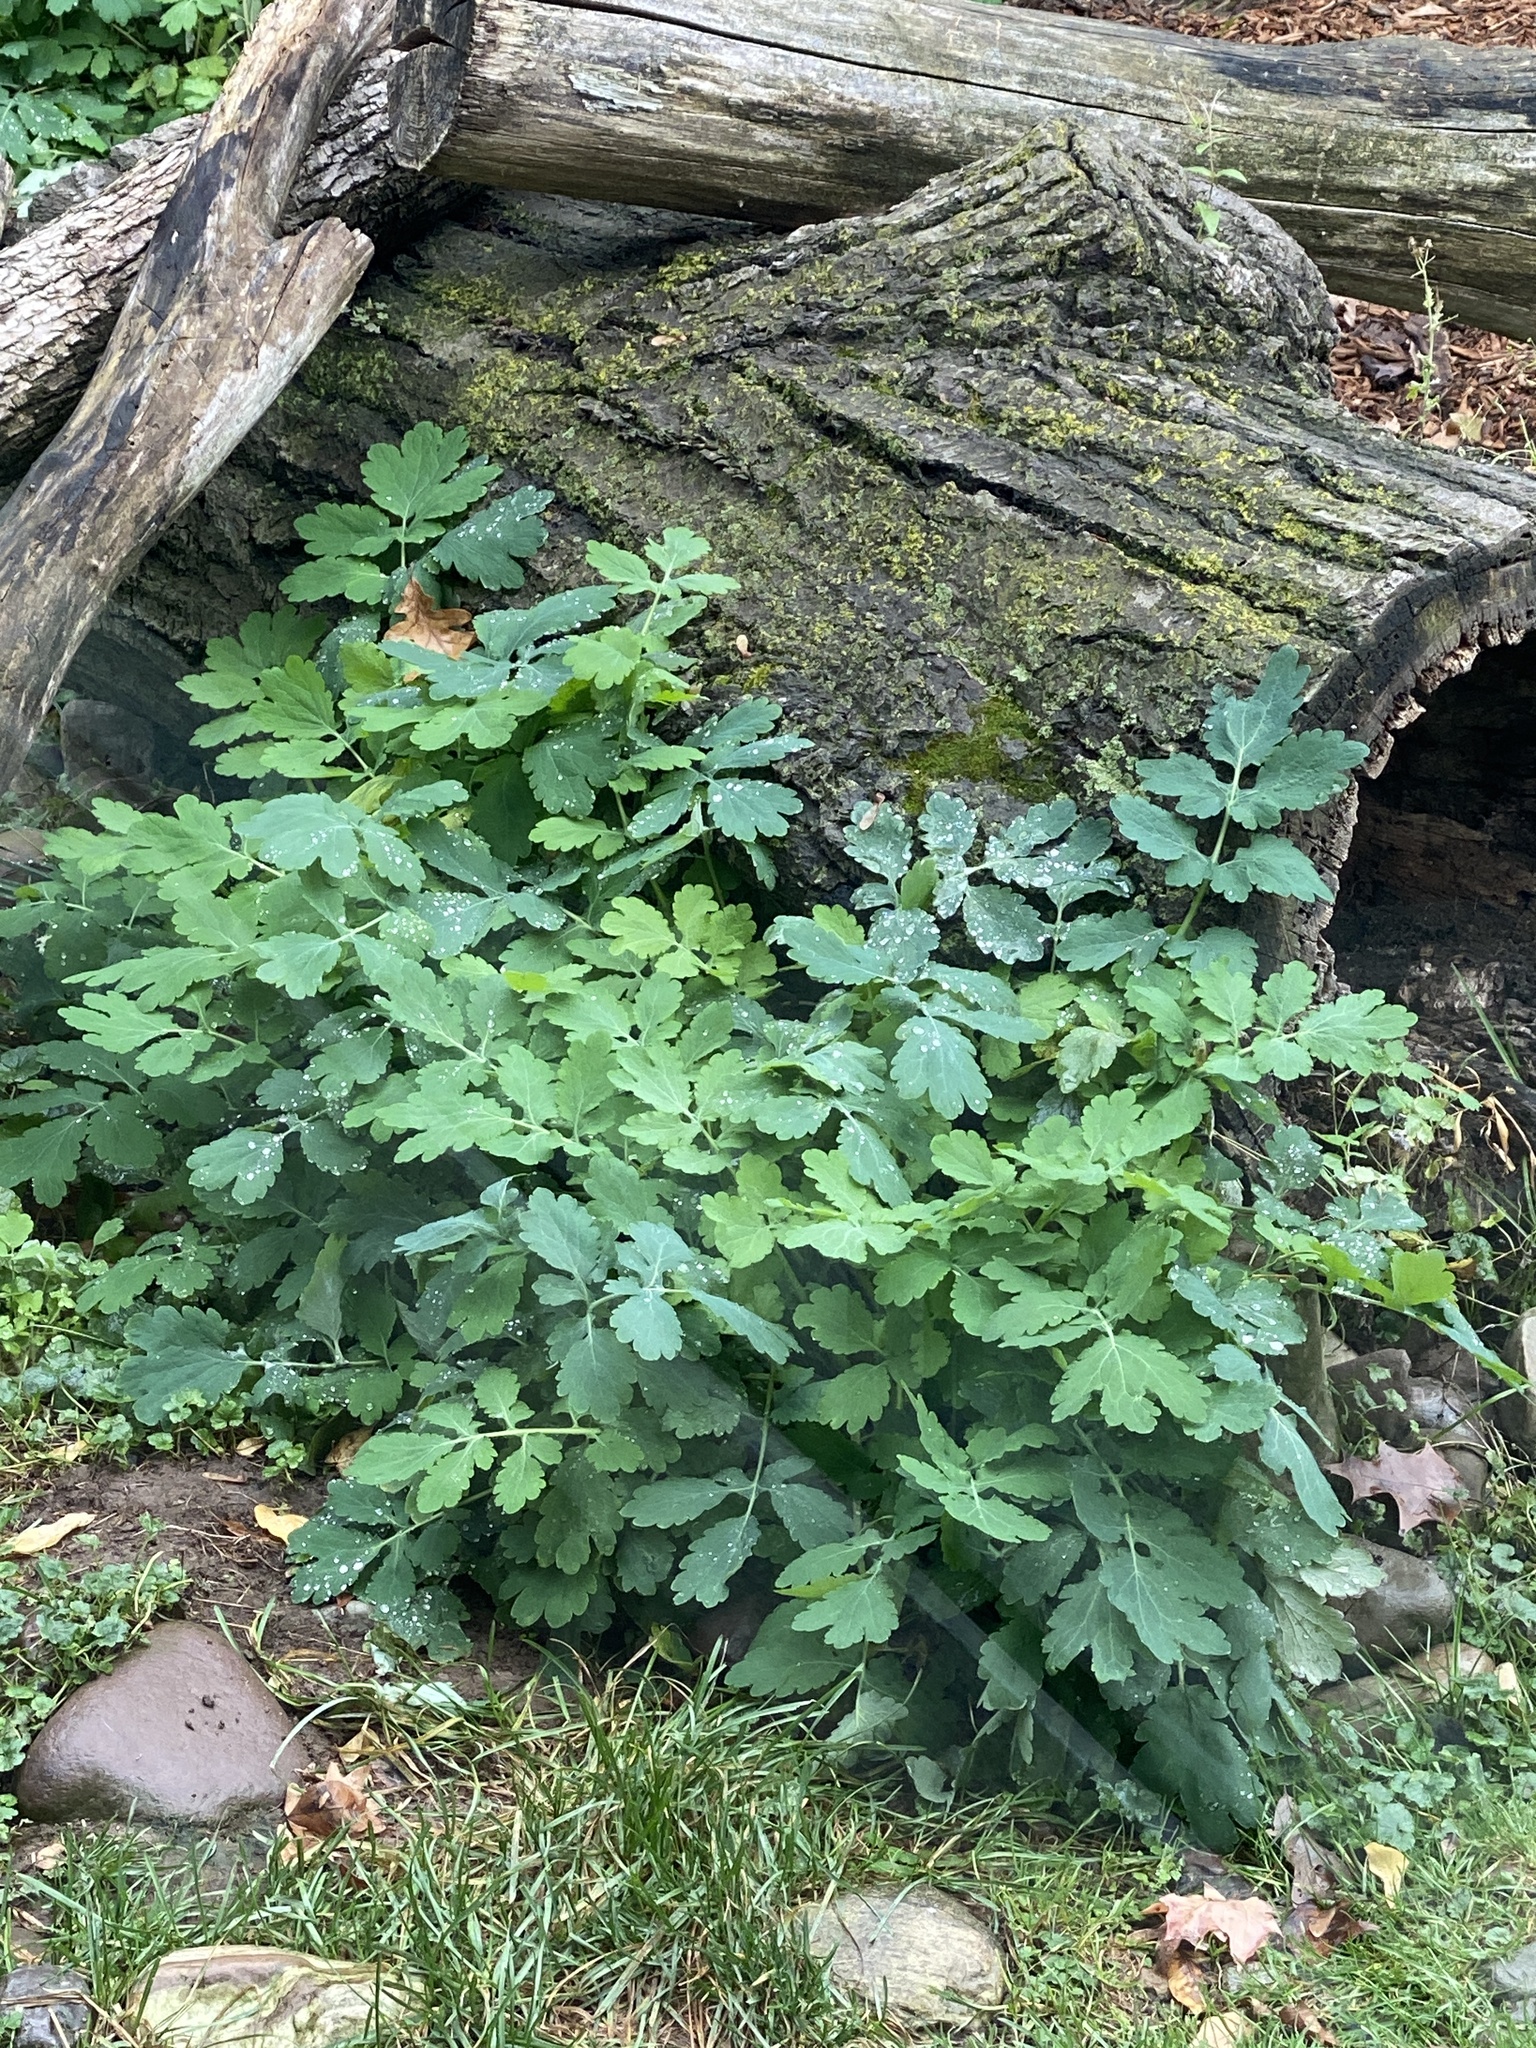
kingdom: Plantae
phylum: Tracheophyta
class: Magnoliopsida
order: Ranunculales
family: Papaveraceae
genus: Chelidonium
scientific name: Chelidonium majus
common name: Greater celandine
